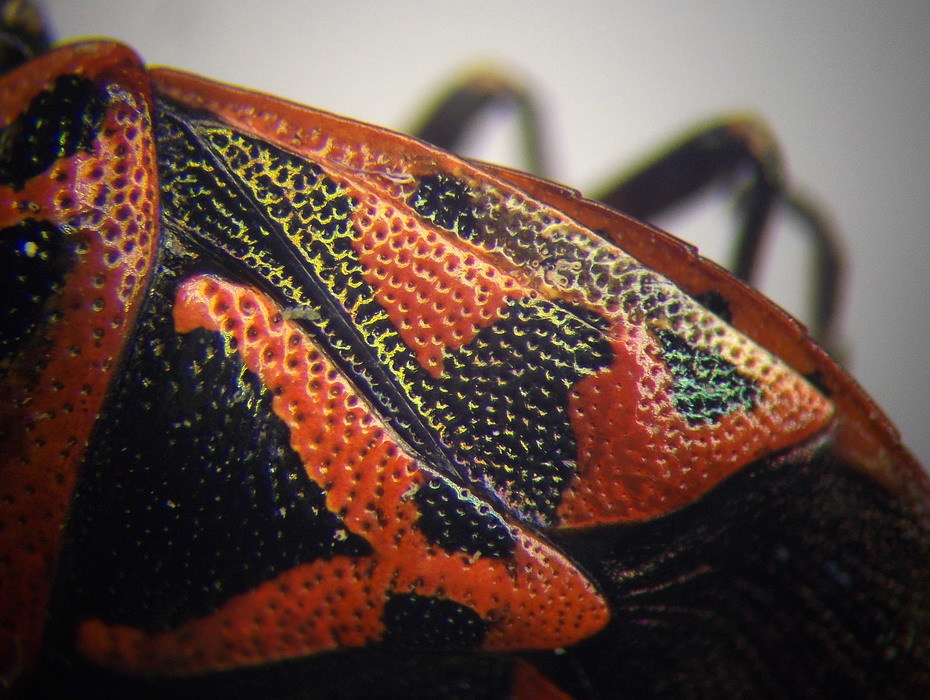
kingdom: Animalia
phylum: Arthropoda
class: Insecta
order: Hemiptera
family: Pentatomidae
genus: Eurydema
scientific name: Eurydema ornata
